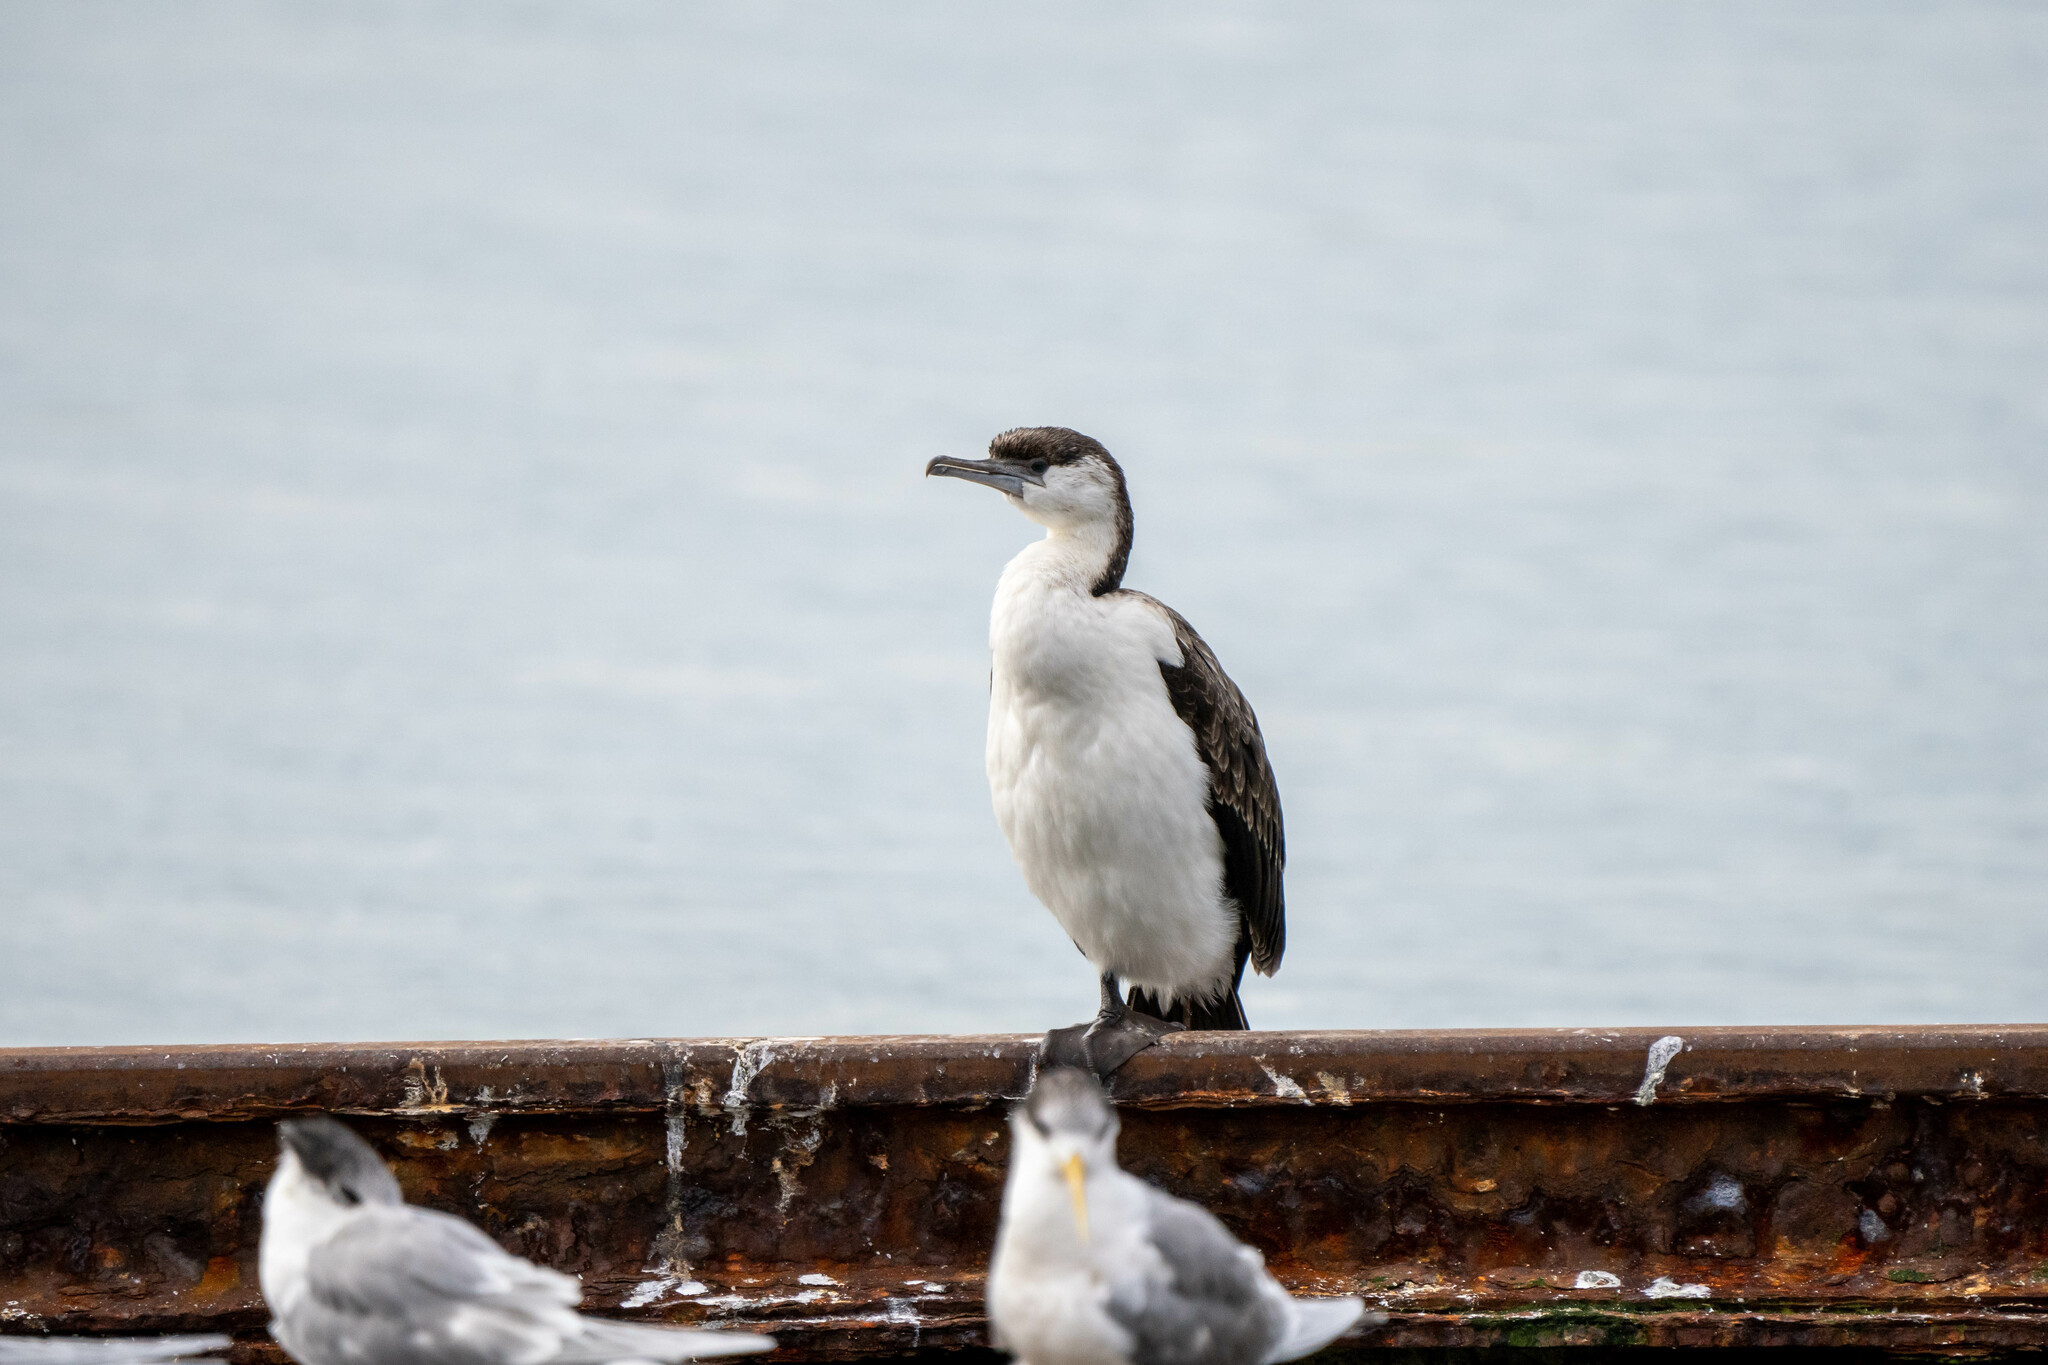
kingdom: Animalia
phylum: Chordata
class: Aves
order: Suliformes
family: Phalacrocoracidae
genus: Phalacrocorax
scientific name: Phalacrocorax fuscescens
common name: Black-faced cormorant
